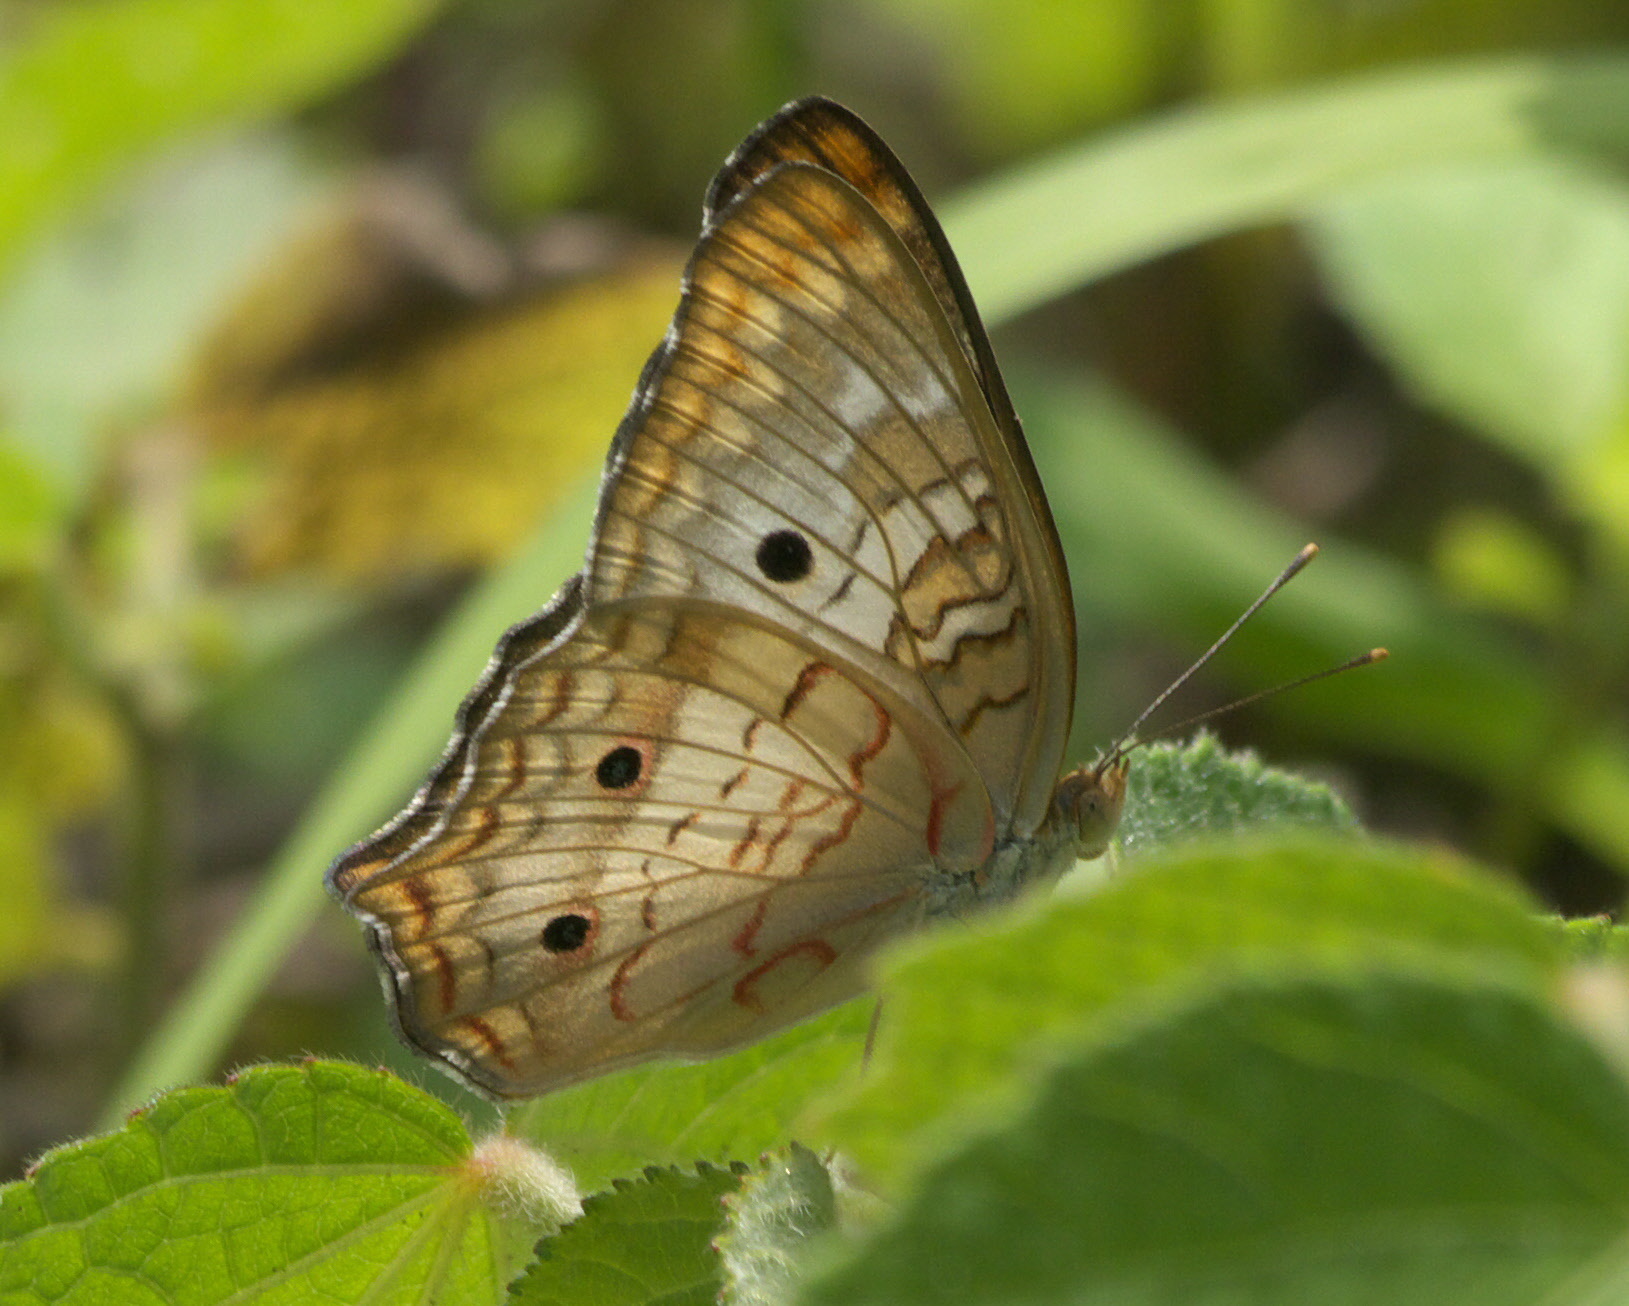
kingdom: Animalia
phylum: Arthropoda
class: Insecta
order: Lepidoptera
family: Nymphalidae
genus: Anartia
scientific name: Anartia jatrophae
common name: White peacock
